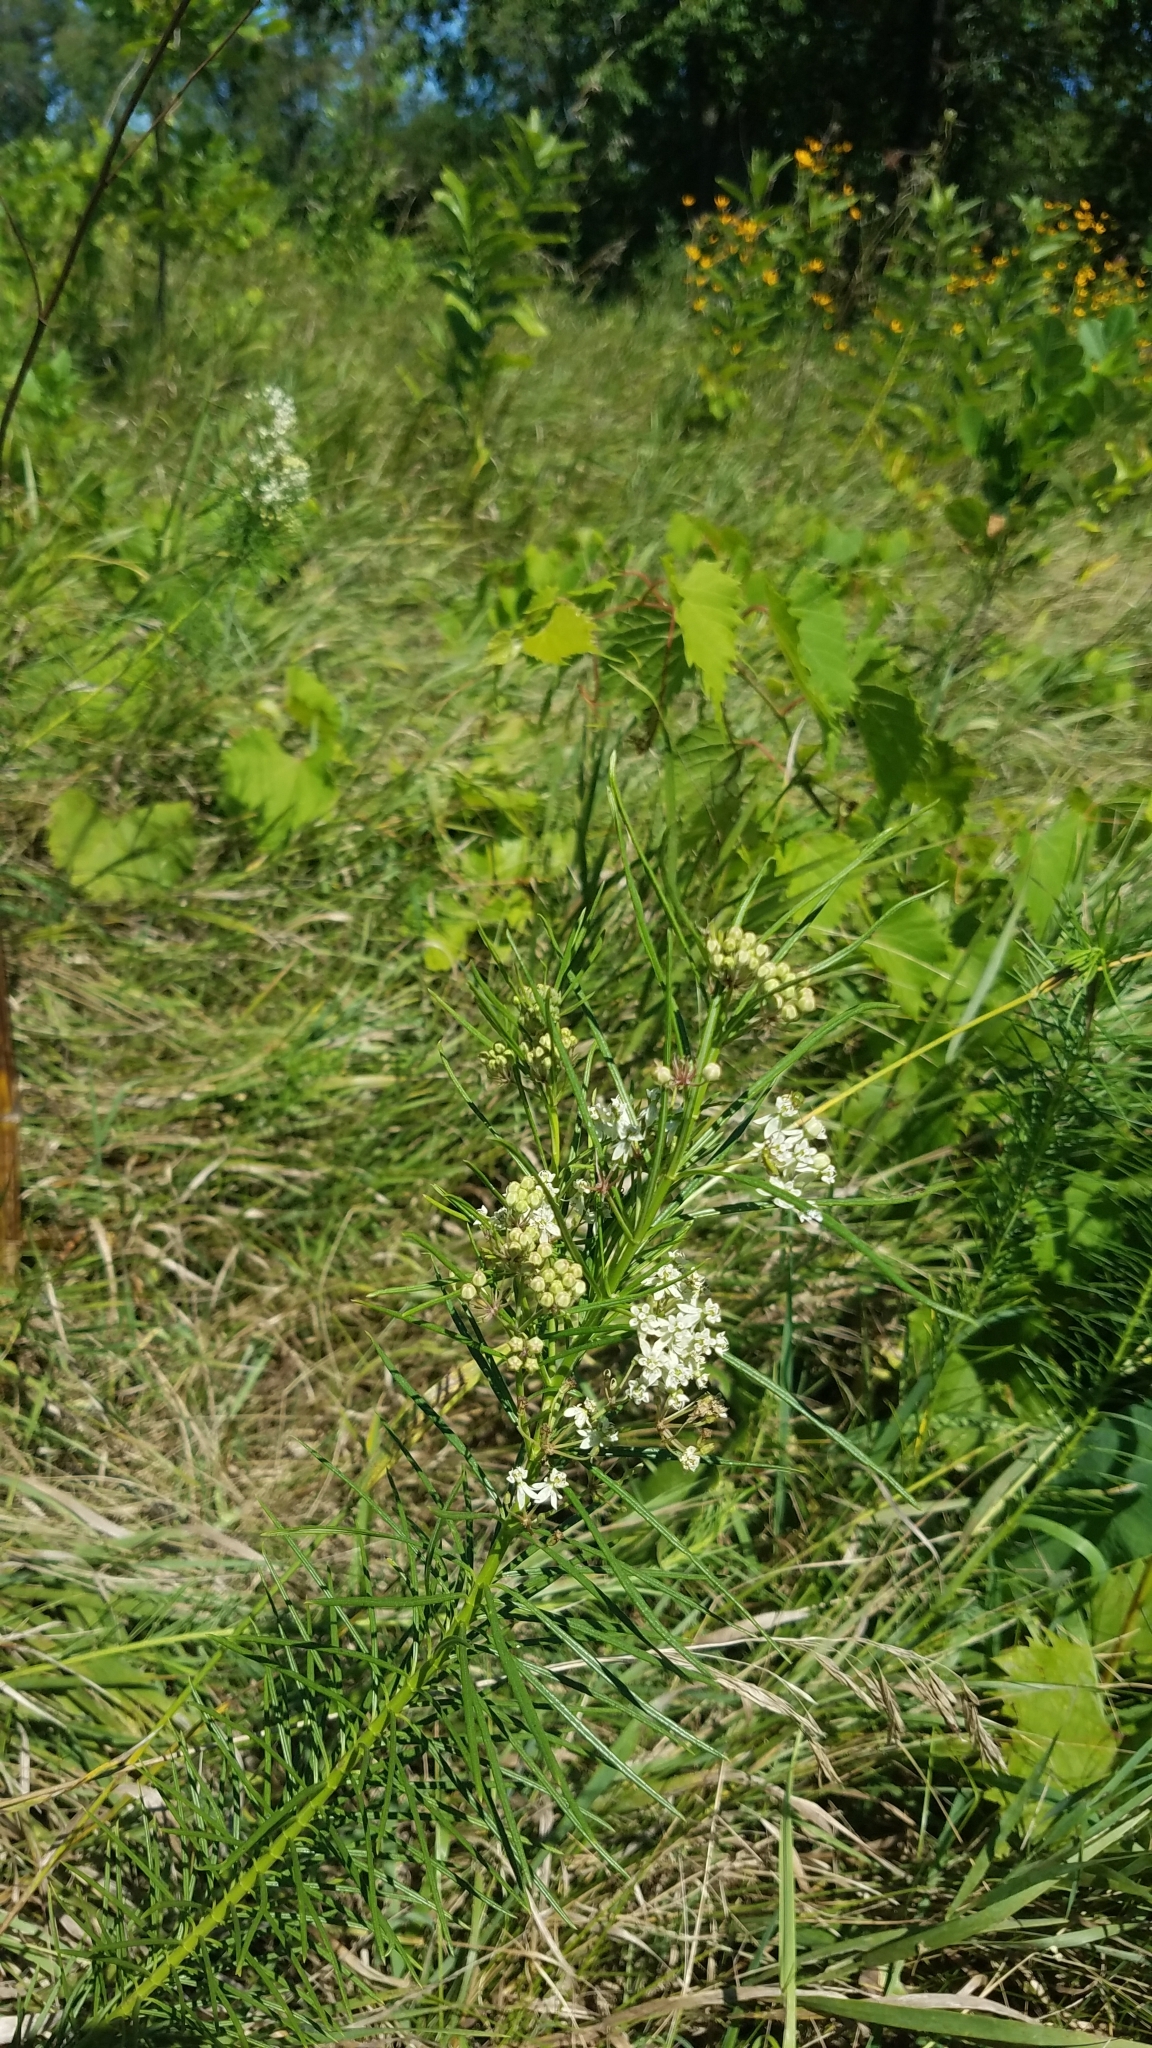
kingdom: Plantae
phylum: Tracheophyta
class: Magnoliopsida
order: Gentianales
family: Apocynaceae
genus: Asclepias
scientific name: Asclepias verticillata
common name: Eastern whorled milkweed
